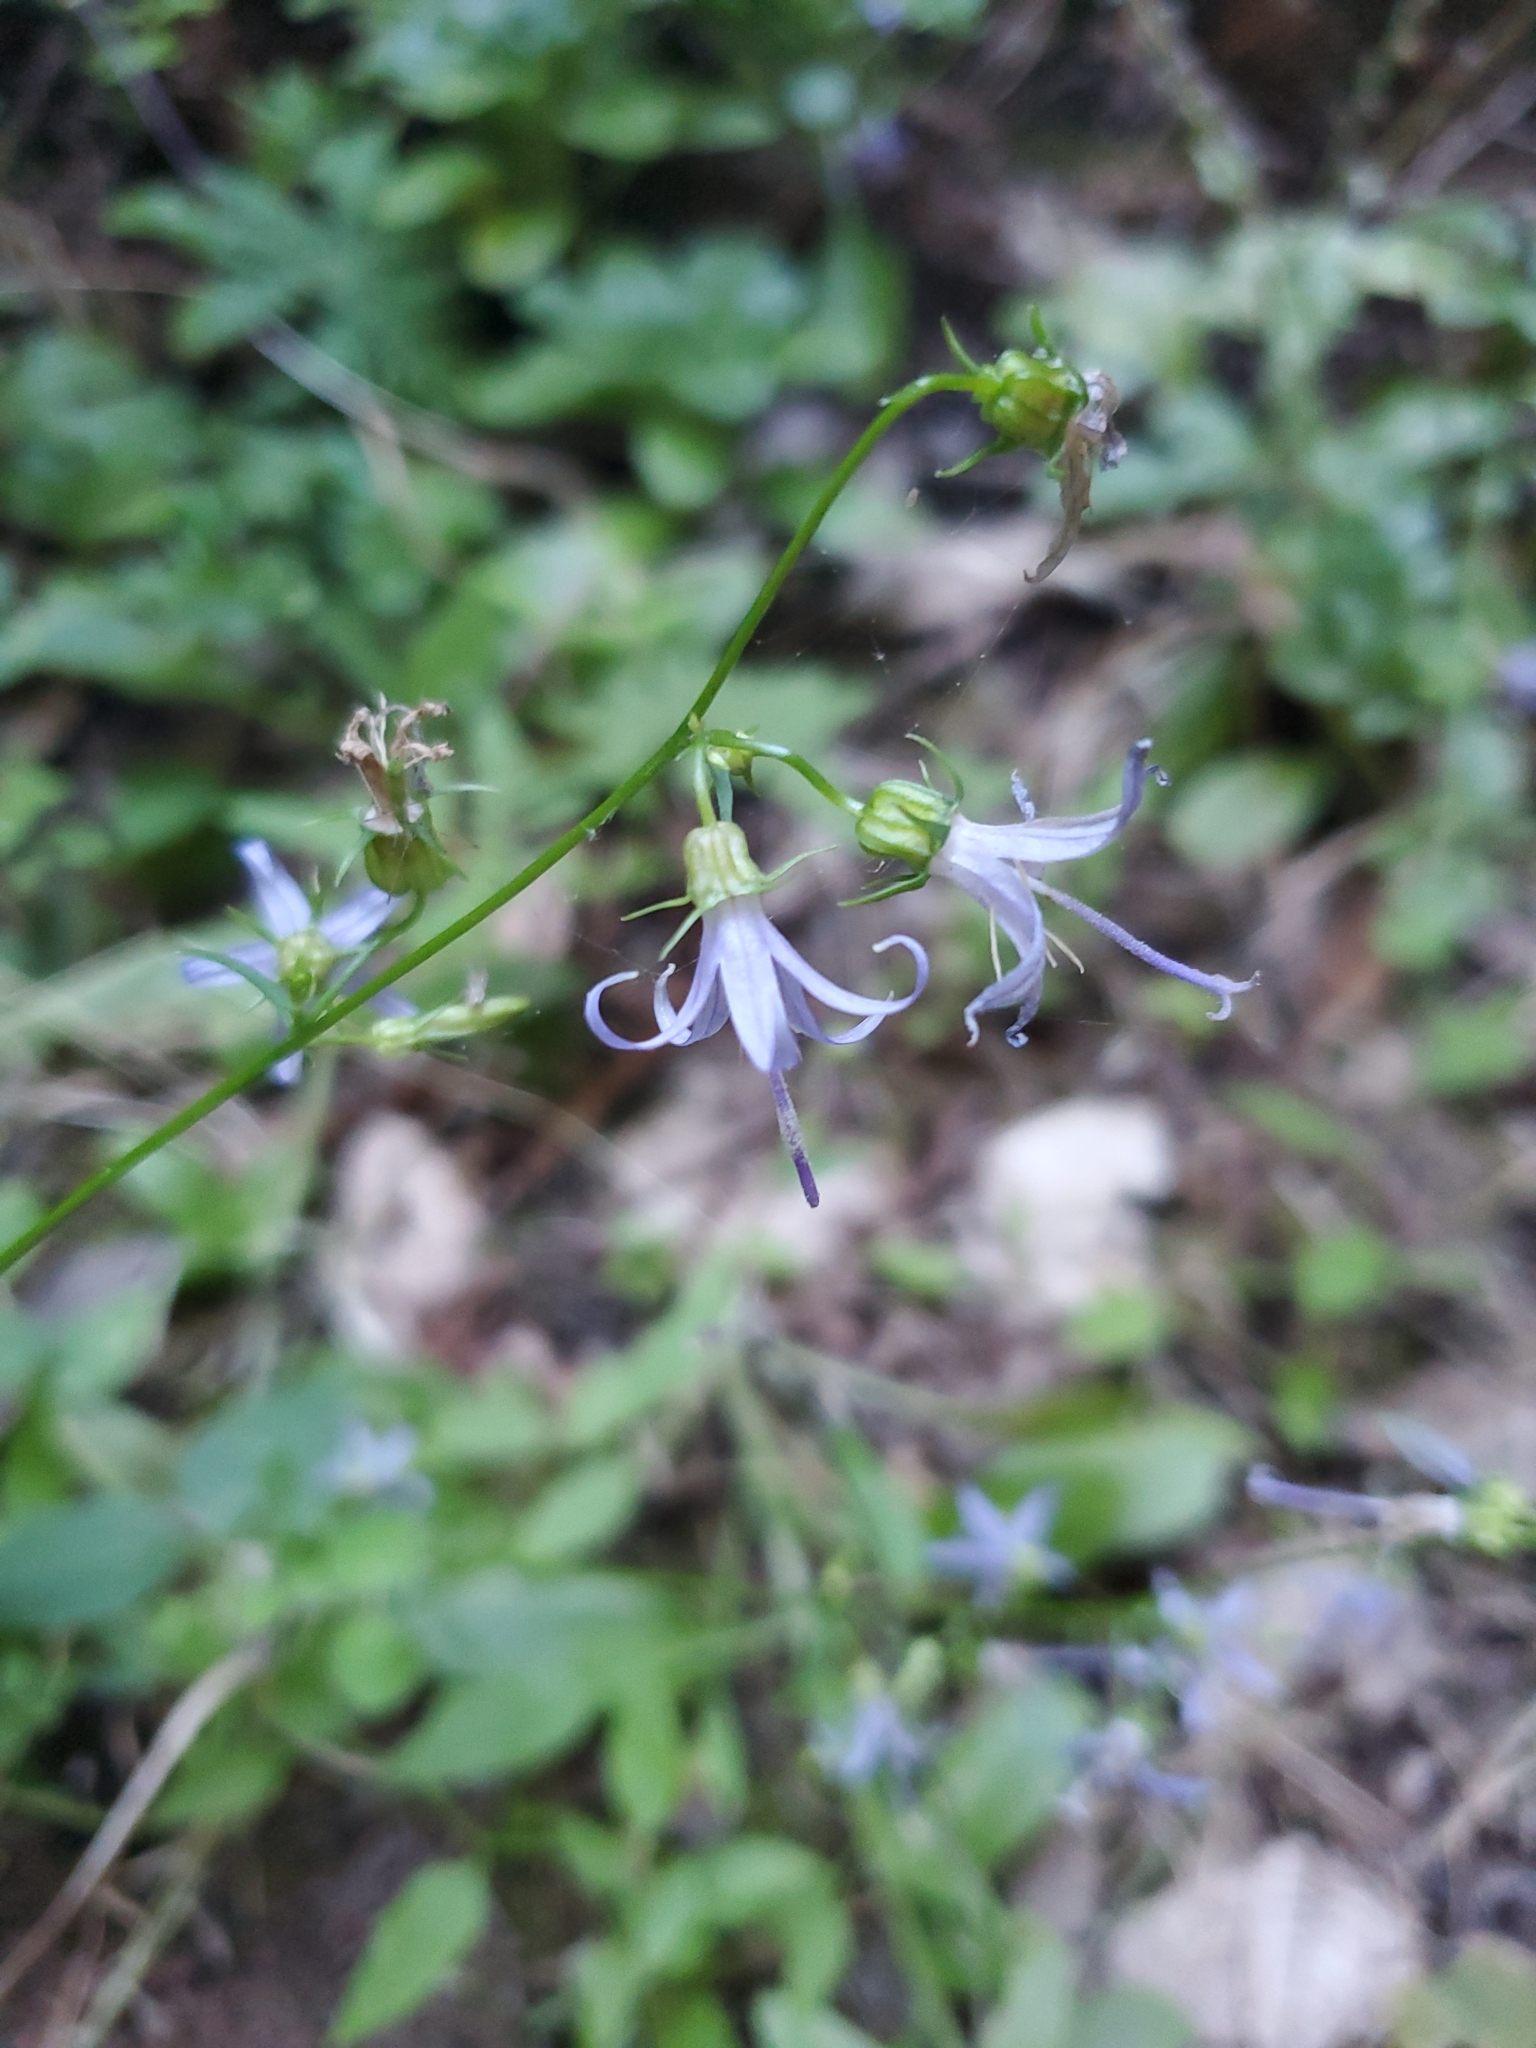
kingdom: Plantae
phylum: Tracheophyta
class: Magnoliopsida
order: Asterales
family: Campanulaceae
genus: Smithiastrum
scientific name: Smithiastrum prenanthoides
